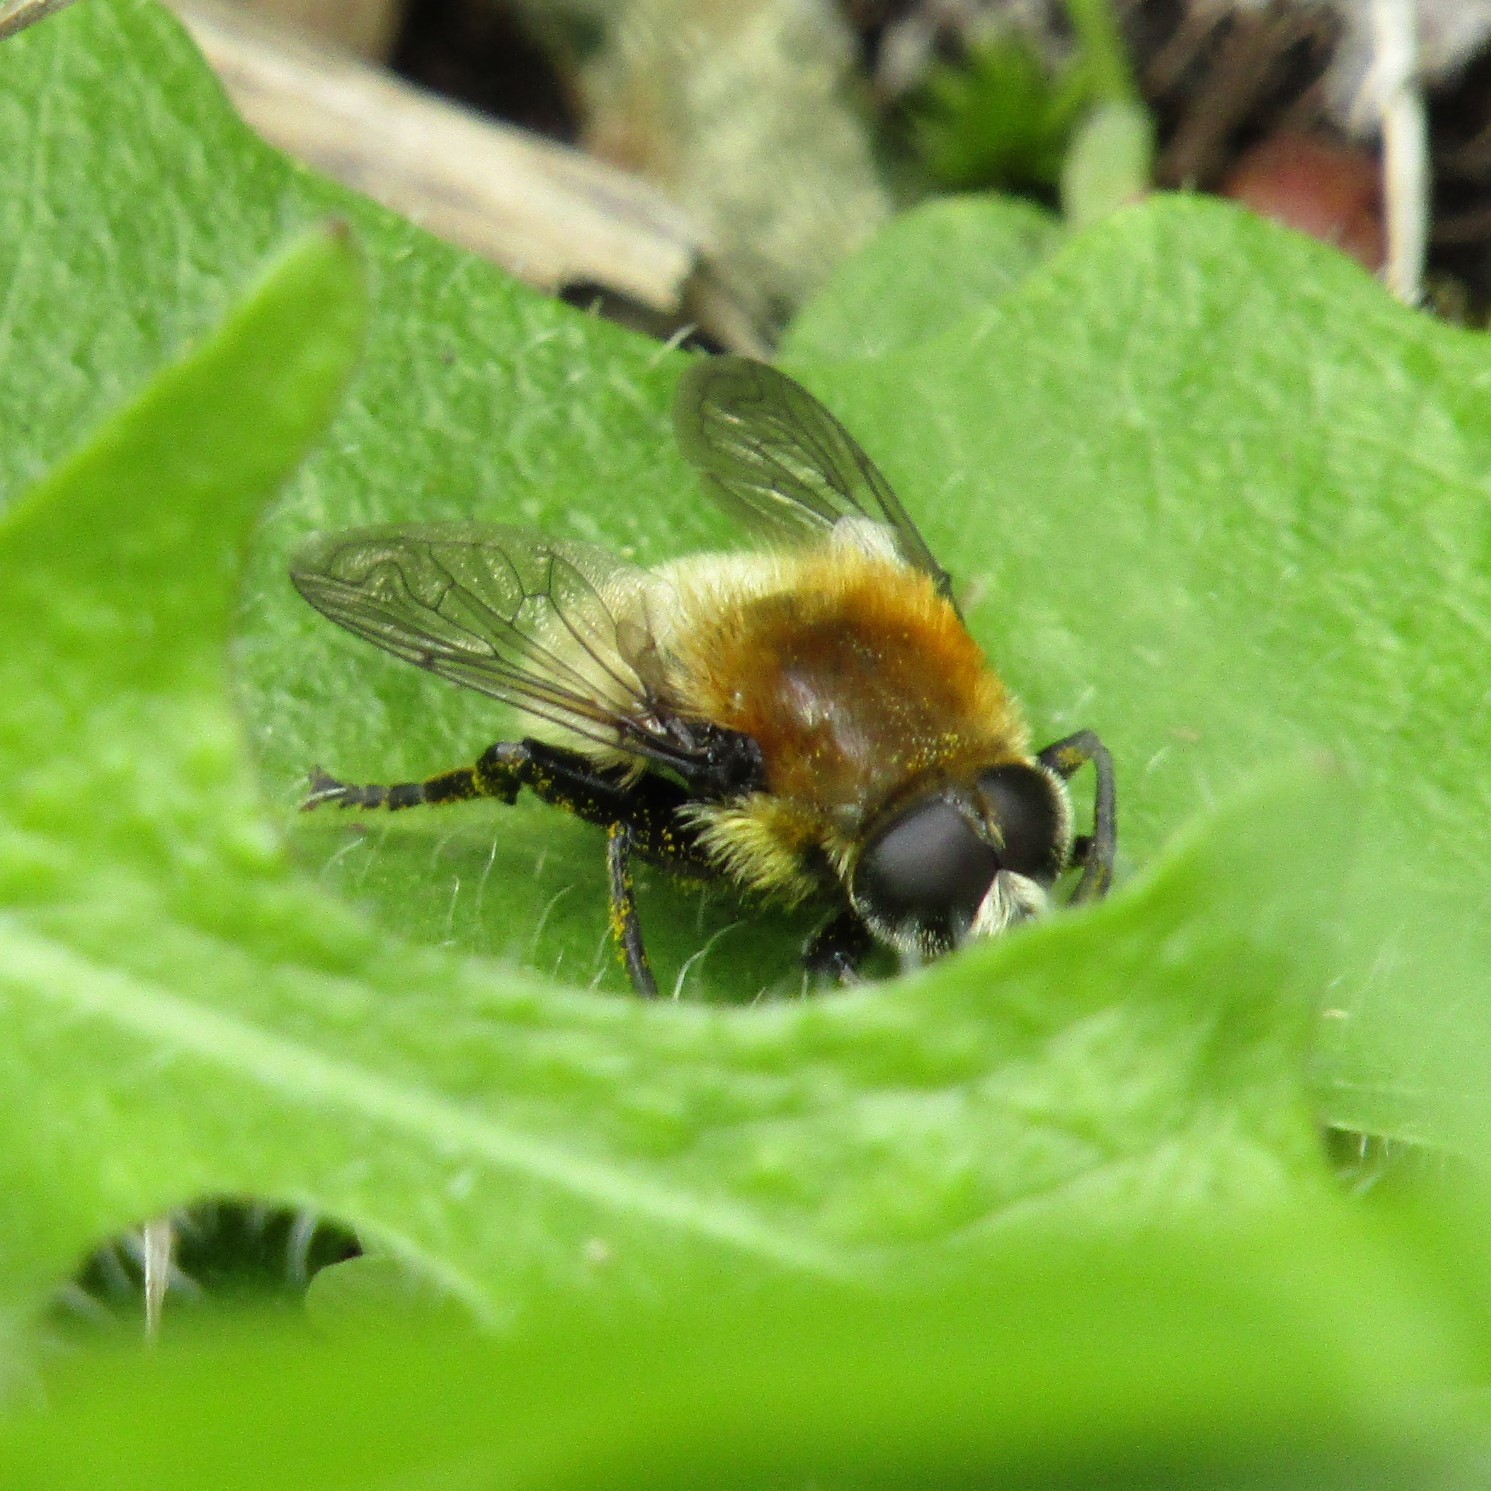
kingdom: Animalia
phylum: Arthropoda
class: Insecta
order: Diptera
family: Syrphidae
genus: Merodon
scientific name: Merodon equestris
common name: Greater bulb-fly
